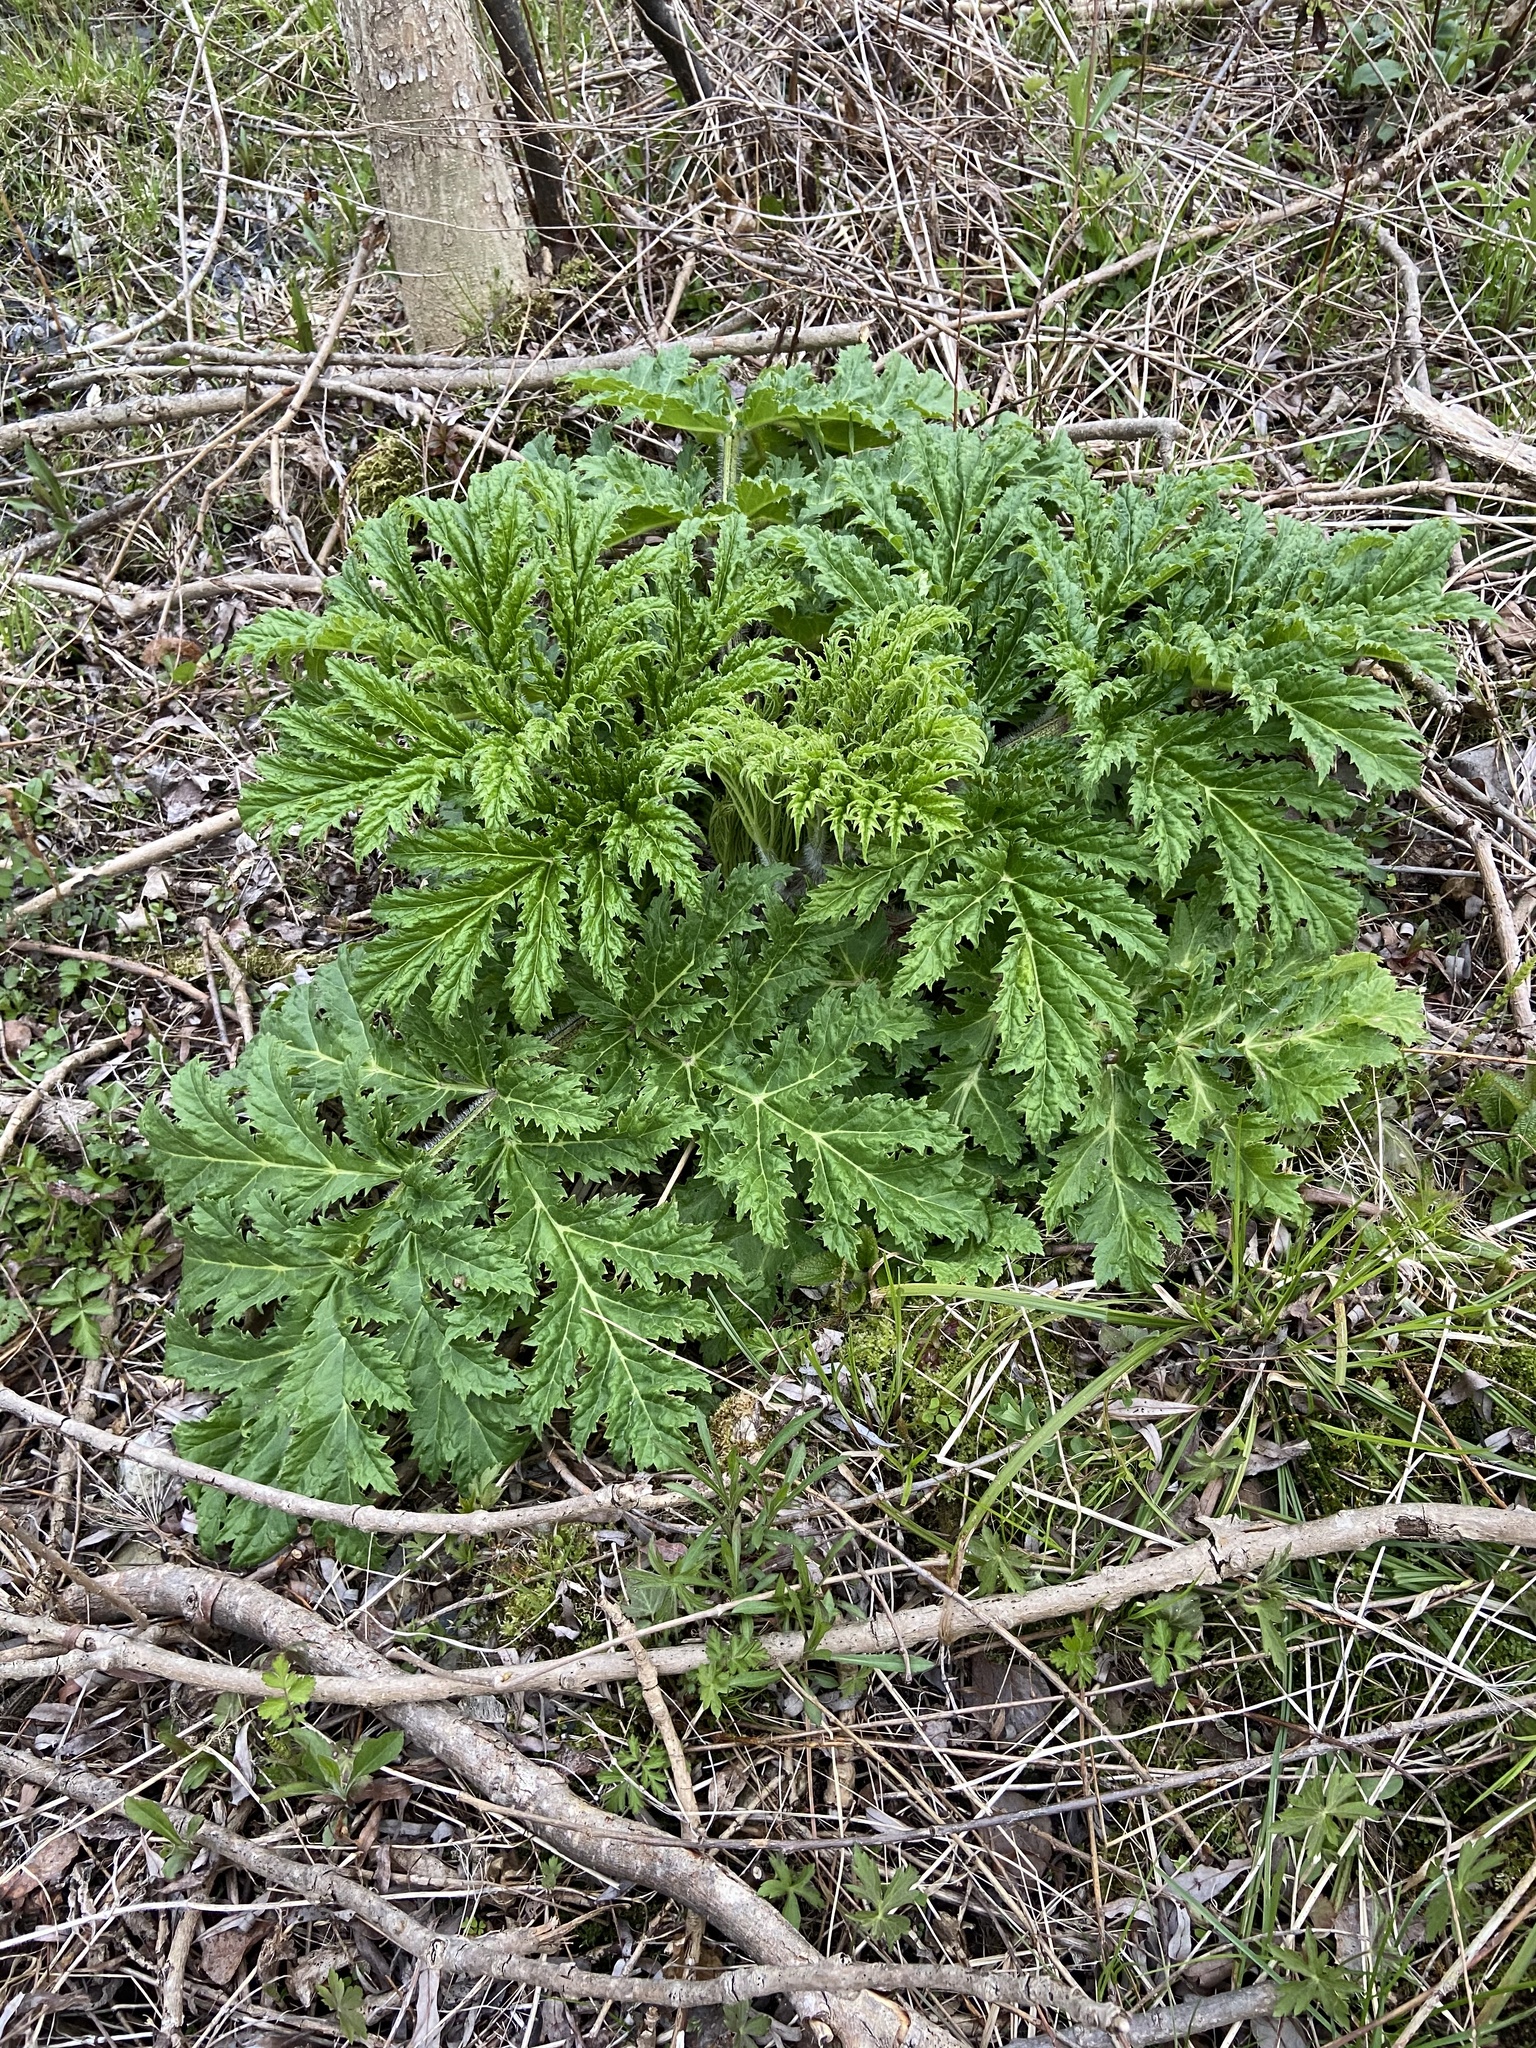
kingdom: Plantae
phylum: Tracheophyta
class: Magnoliopsida
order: Apiales
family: Apiaceae
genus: Heracleum
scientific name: Heracleum mantegazzianum
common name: Giant hogweed
